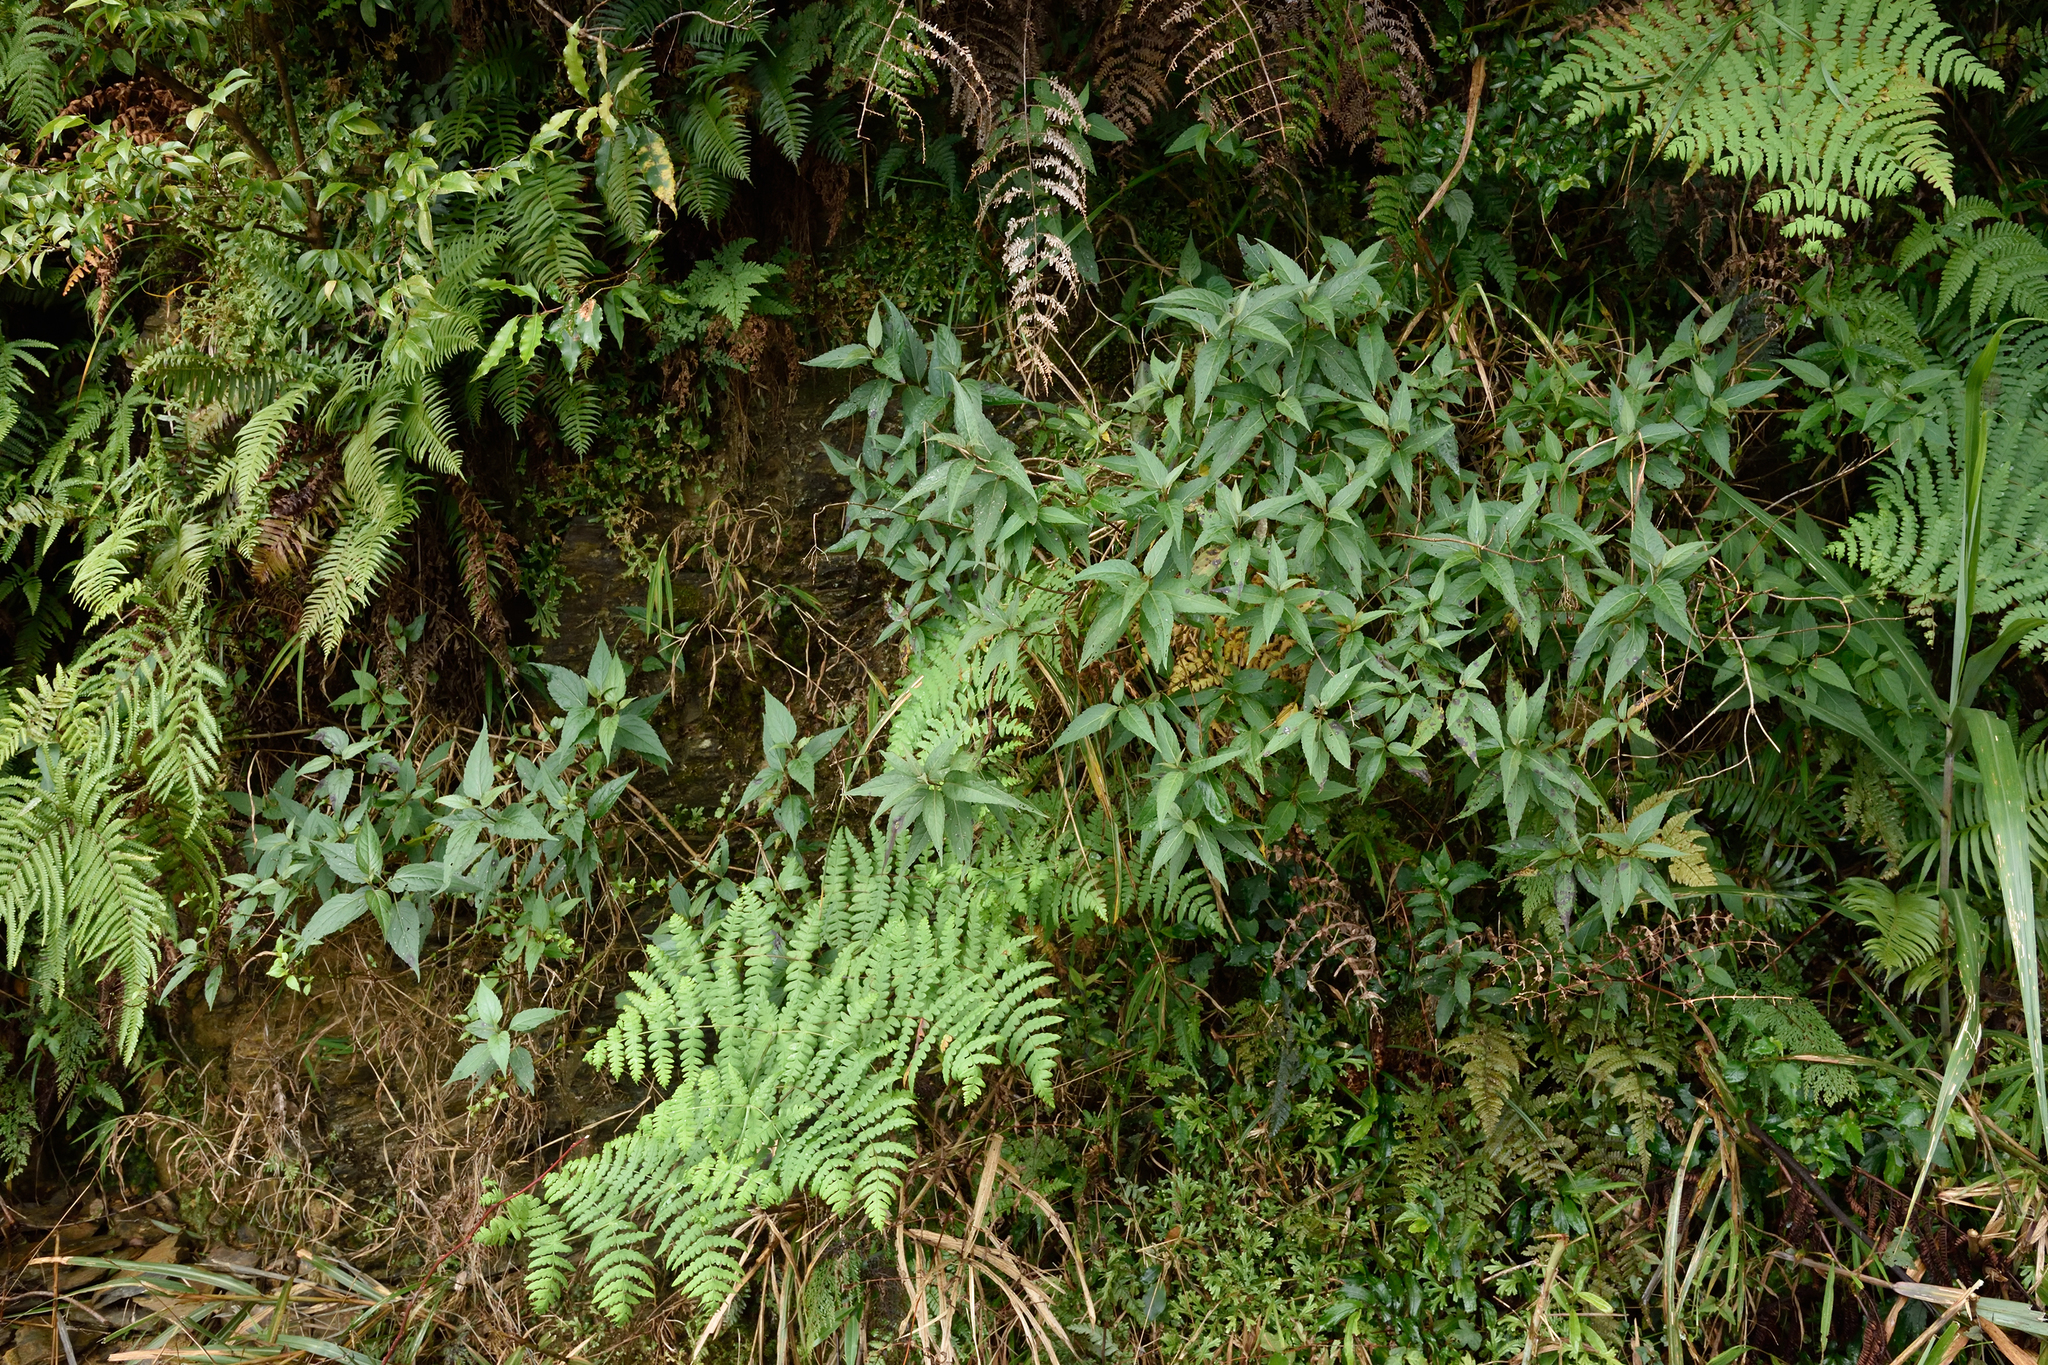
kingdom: Plantae
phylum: Tracheophyta
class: Magnoliopsida
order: Asterales
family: Asteraceae
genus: Eupatorium
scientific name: Eupatorium japonicum
